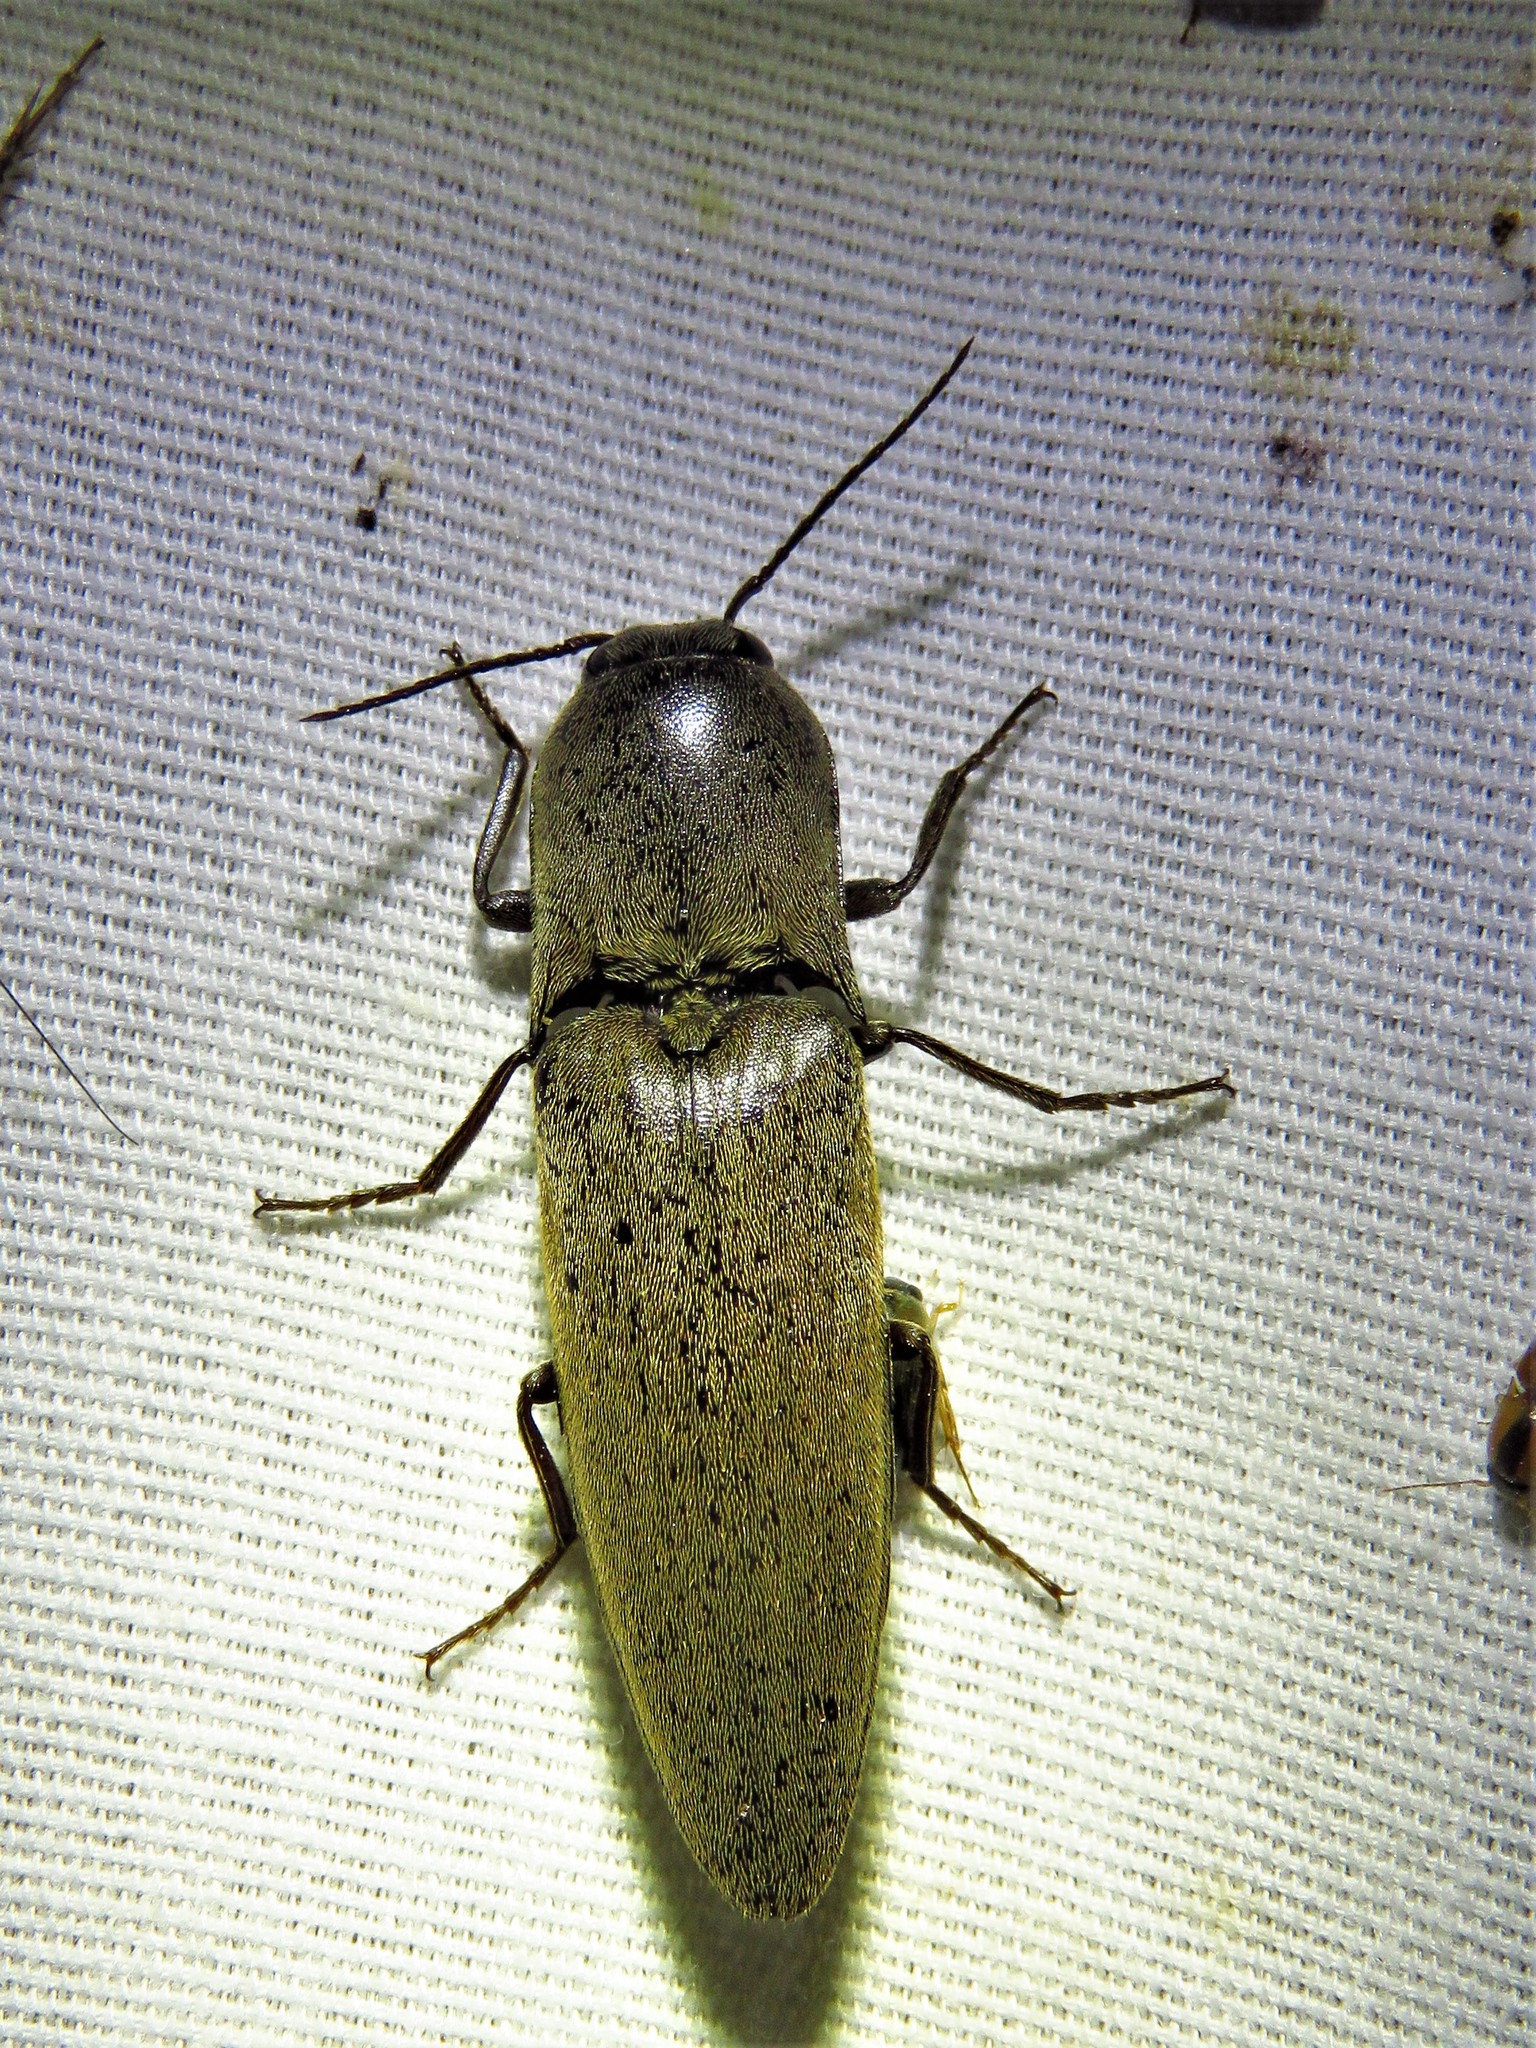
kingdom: Animalia
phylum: Arthropoda
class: Insecta
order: Coleoptera
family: Elateridae
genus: Orthostethus
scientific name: Orthostethus infuscatus
